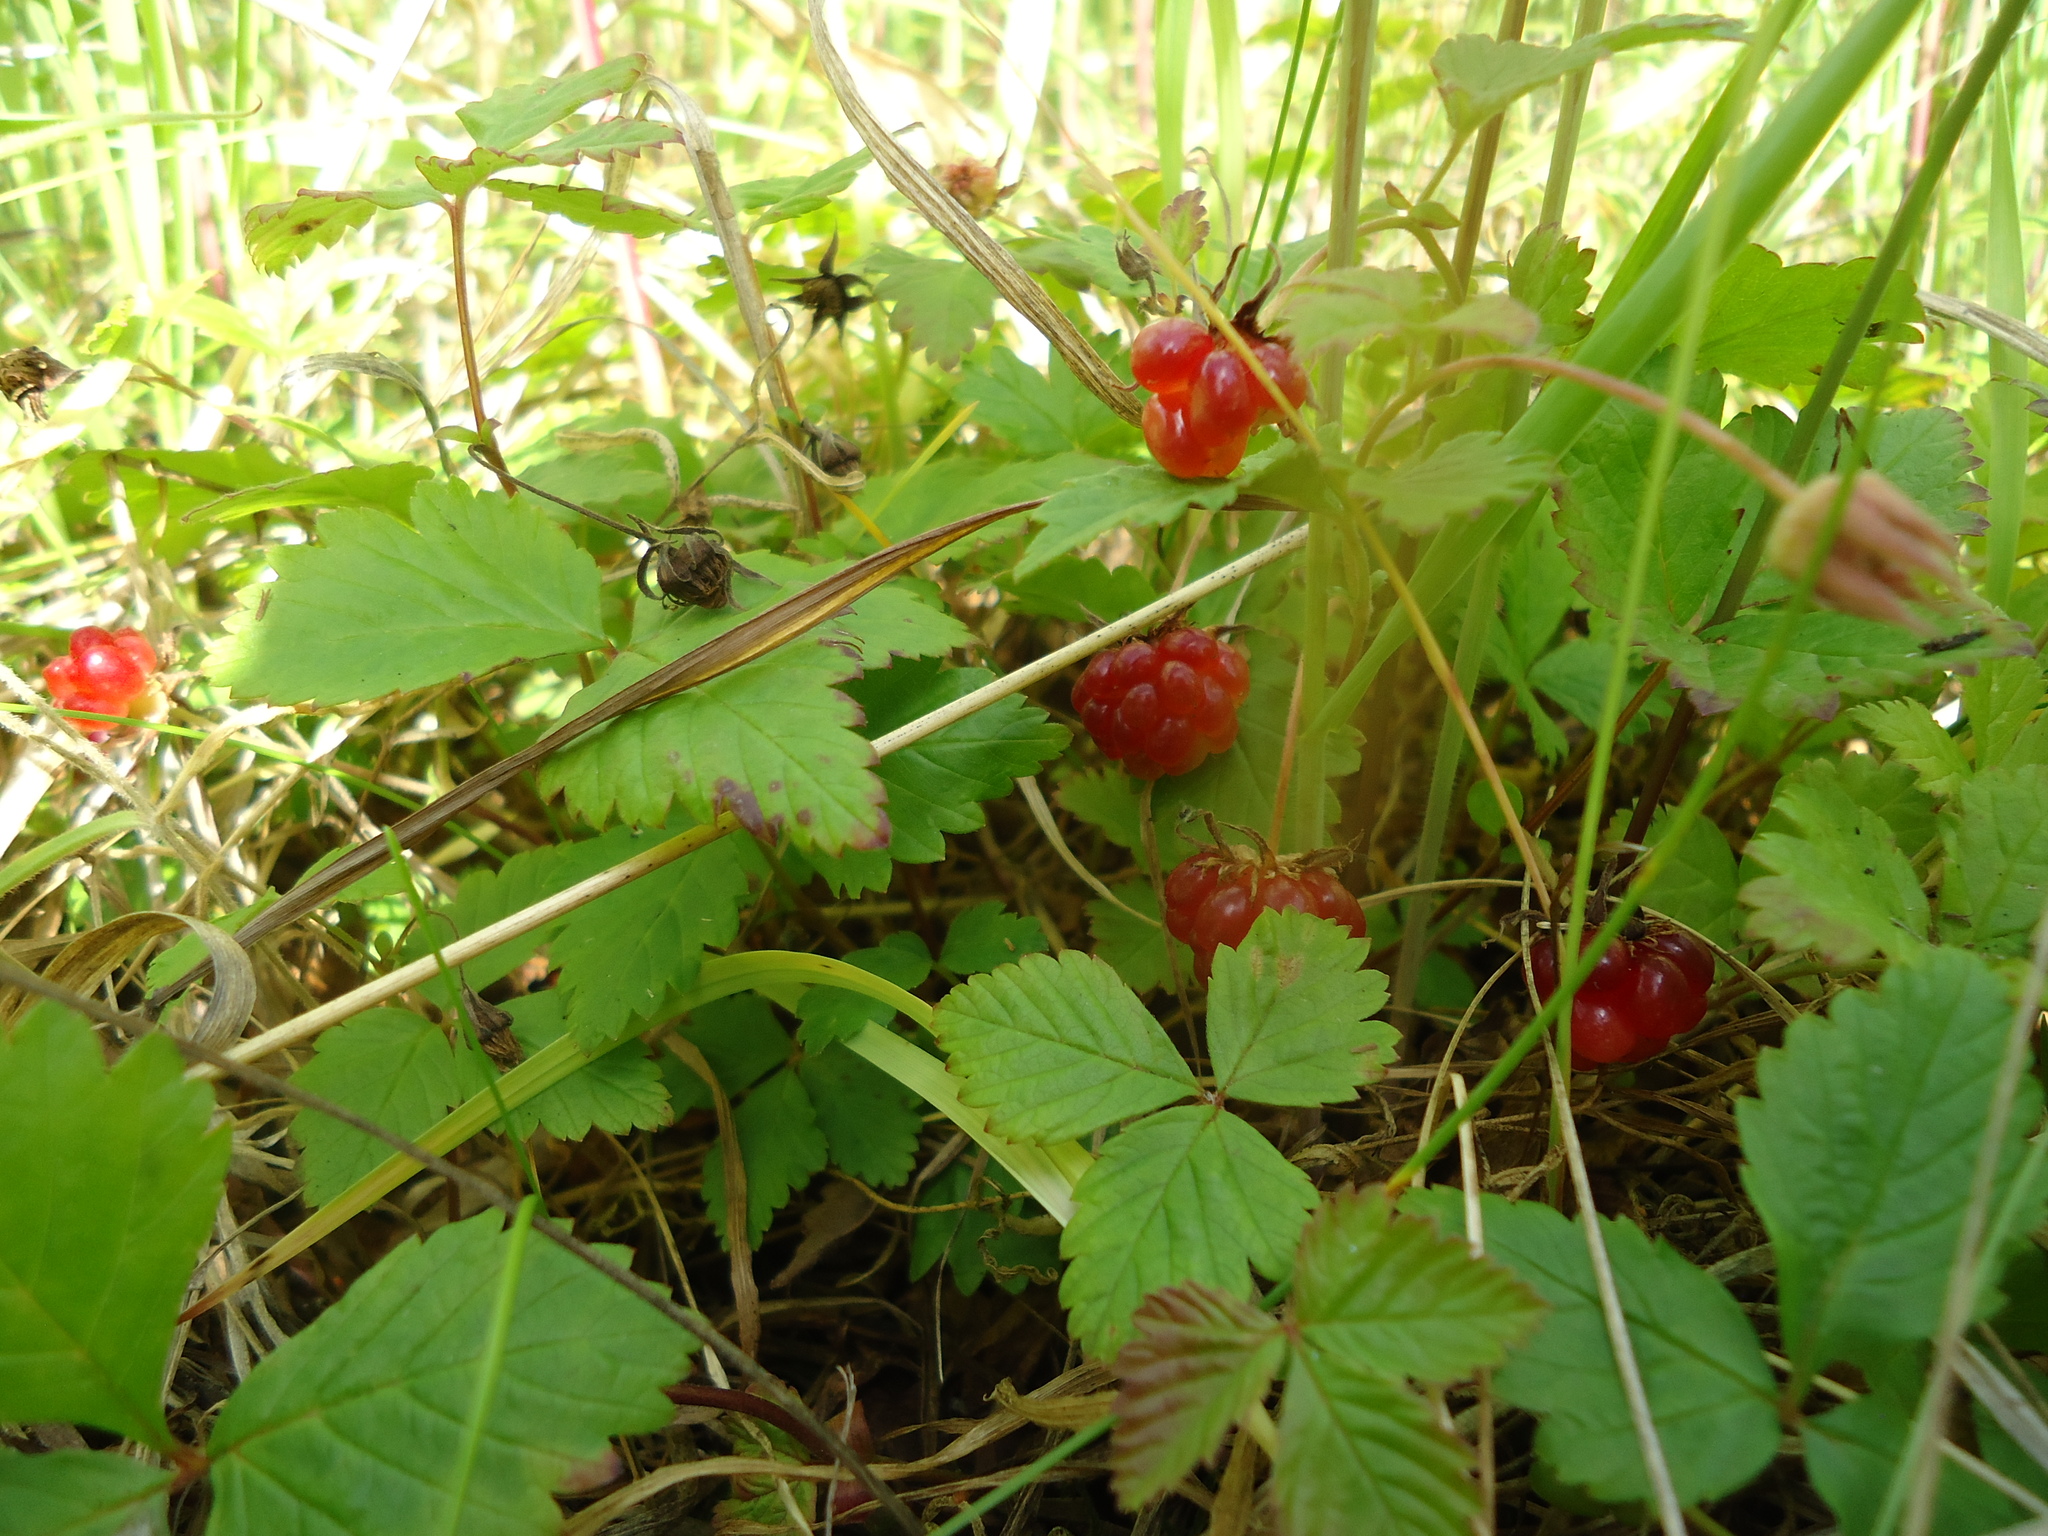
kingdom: Plantae
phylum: Tracheophyta
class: Magnoliopsida
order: Rosales
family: Rosaceae
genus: Rubus
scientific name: Rubus arcticus
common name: Arctic bramble
